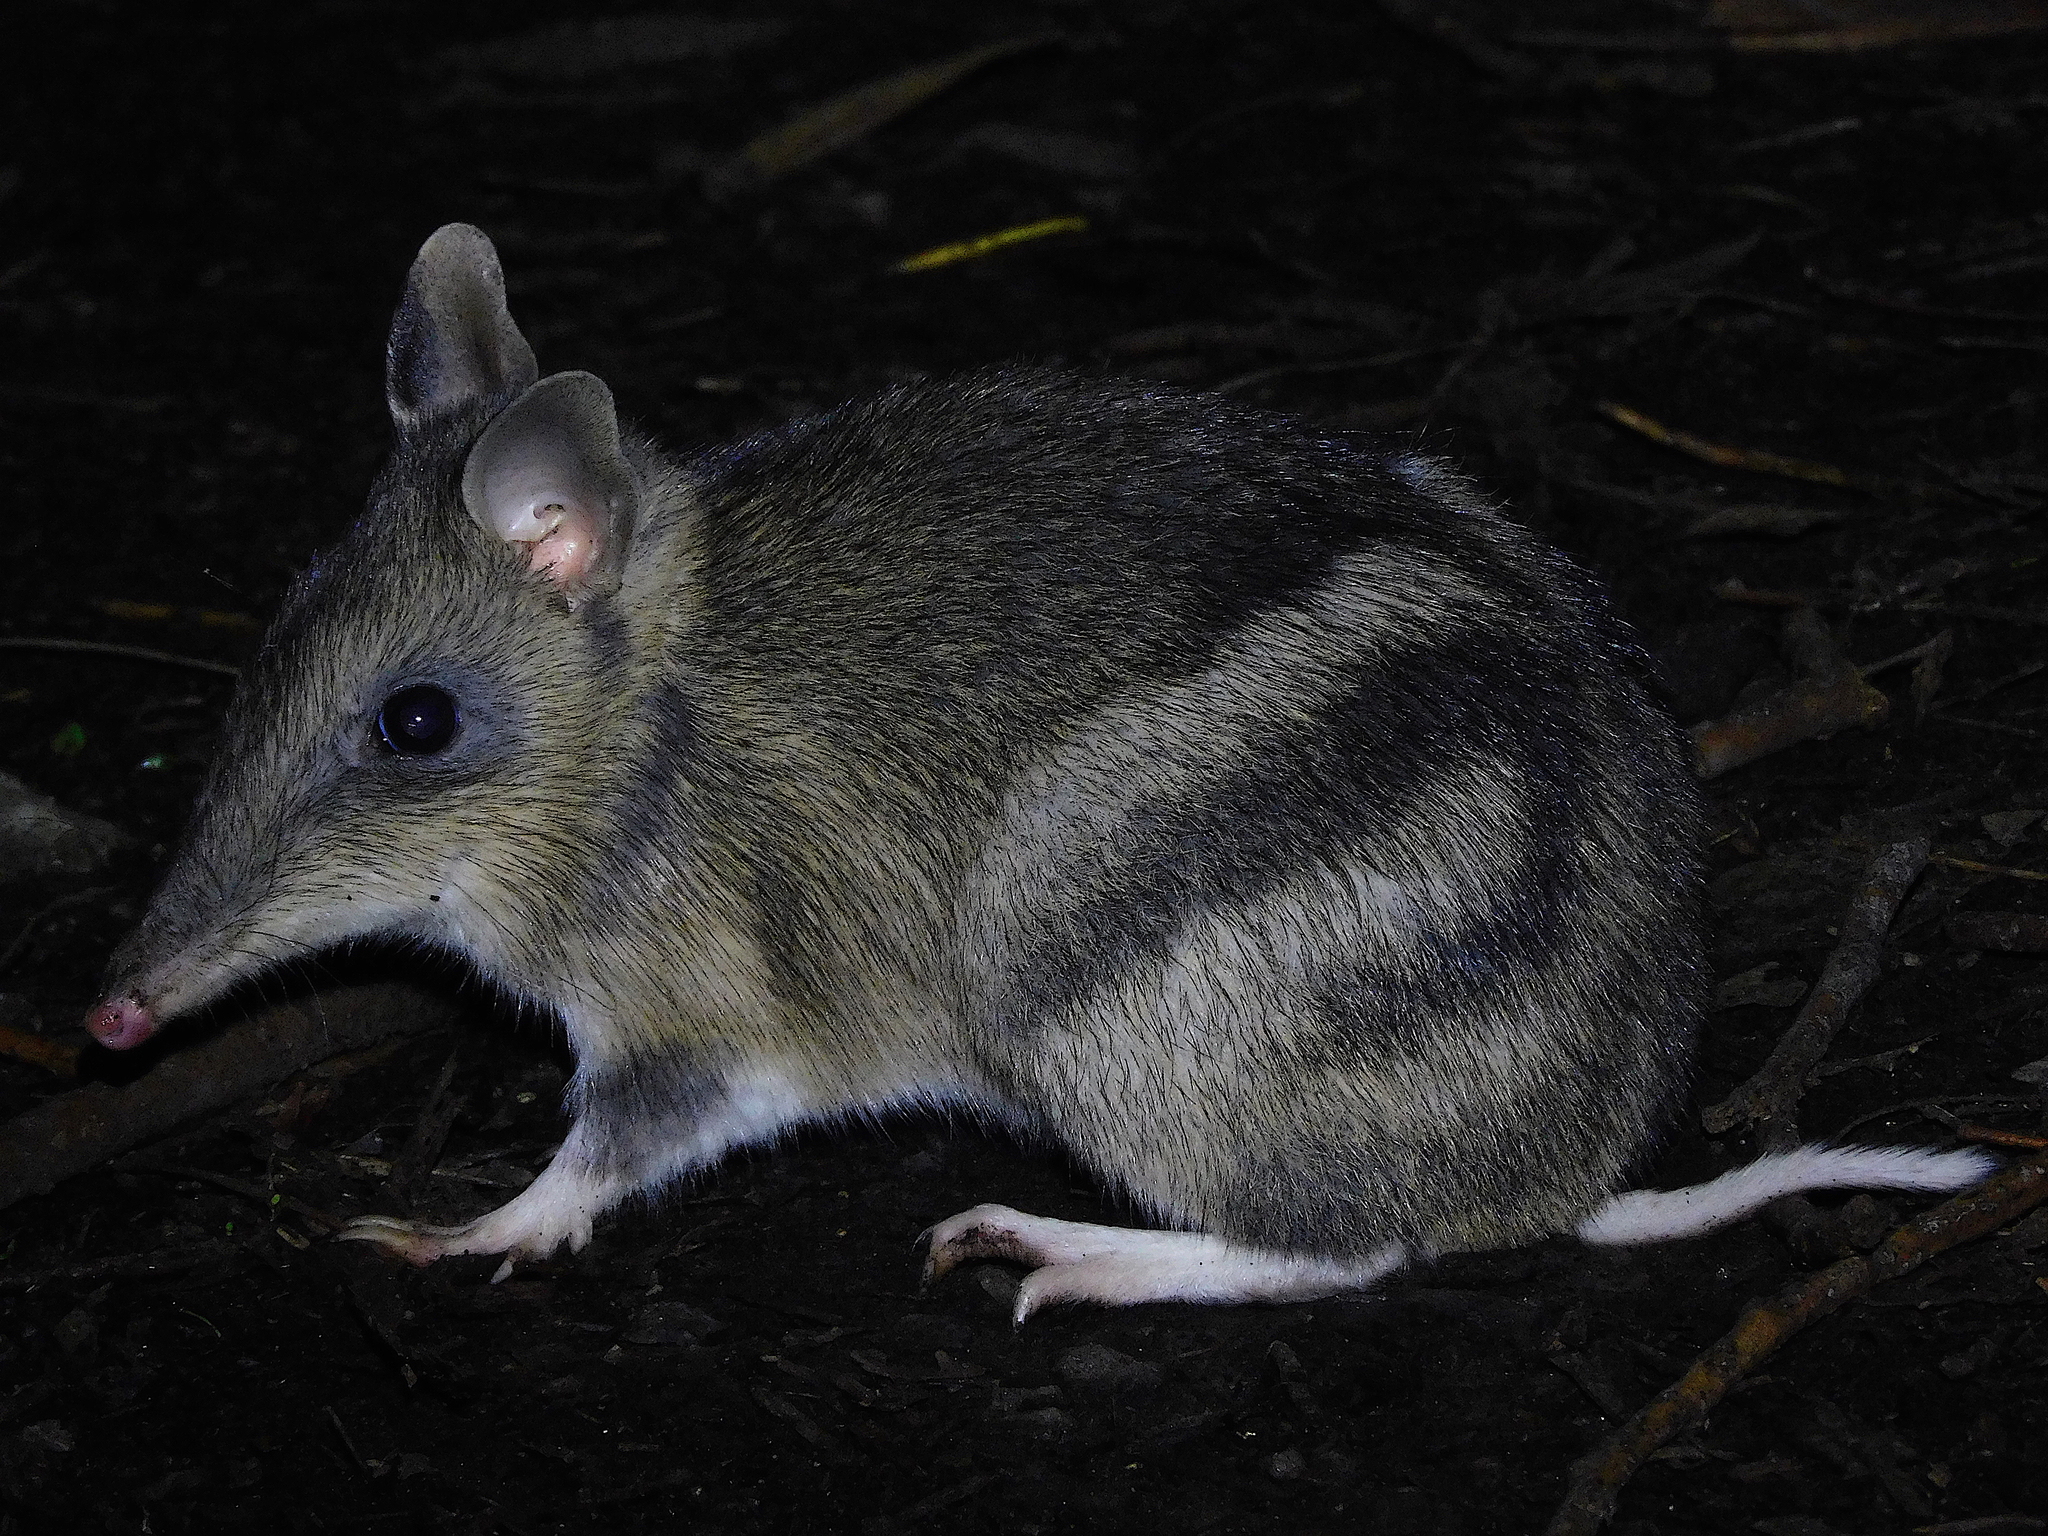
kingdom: Animalia
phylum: Chordata
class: Mammalia
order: Peramelemorphia
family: Peramelidae
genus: Perameles
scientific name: Perameles gunnii
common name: Eastern barred bandicoot
